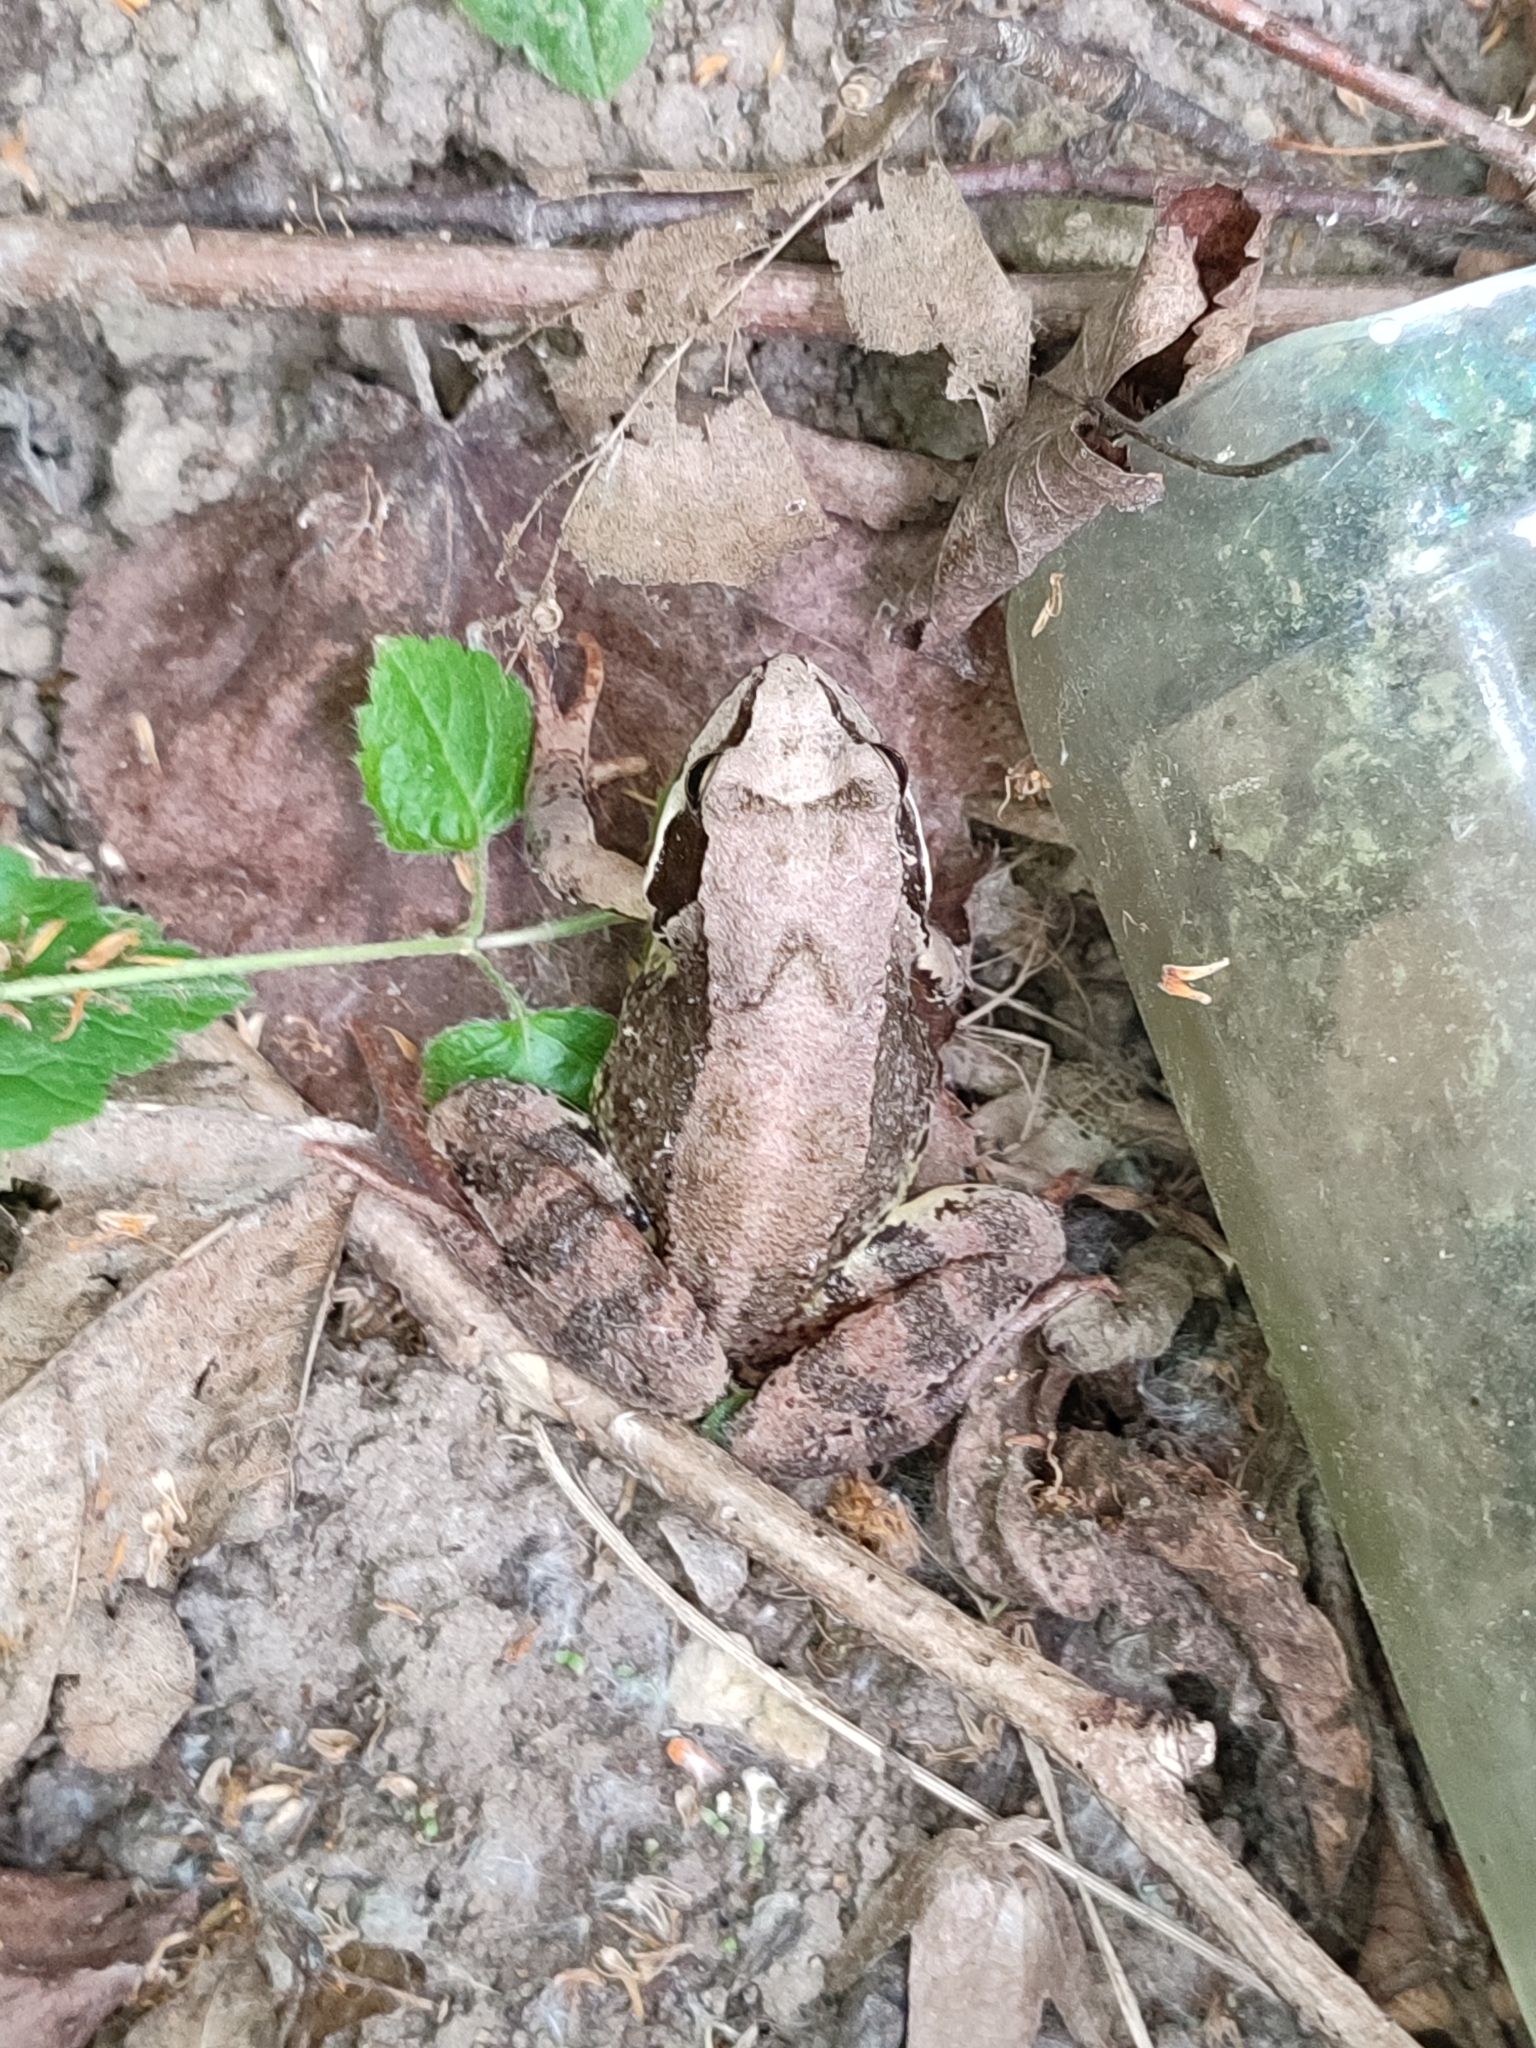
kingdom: Animalia
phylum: Chordata
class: Amphibia
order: Anura
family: Ranidae
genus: Rana
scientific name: Rana temporaria
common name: Common frog
